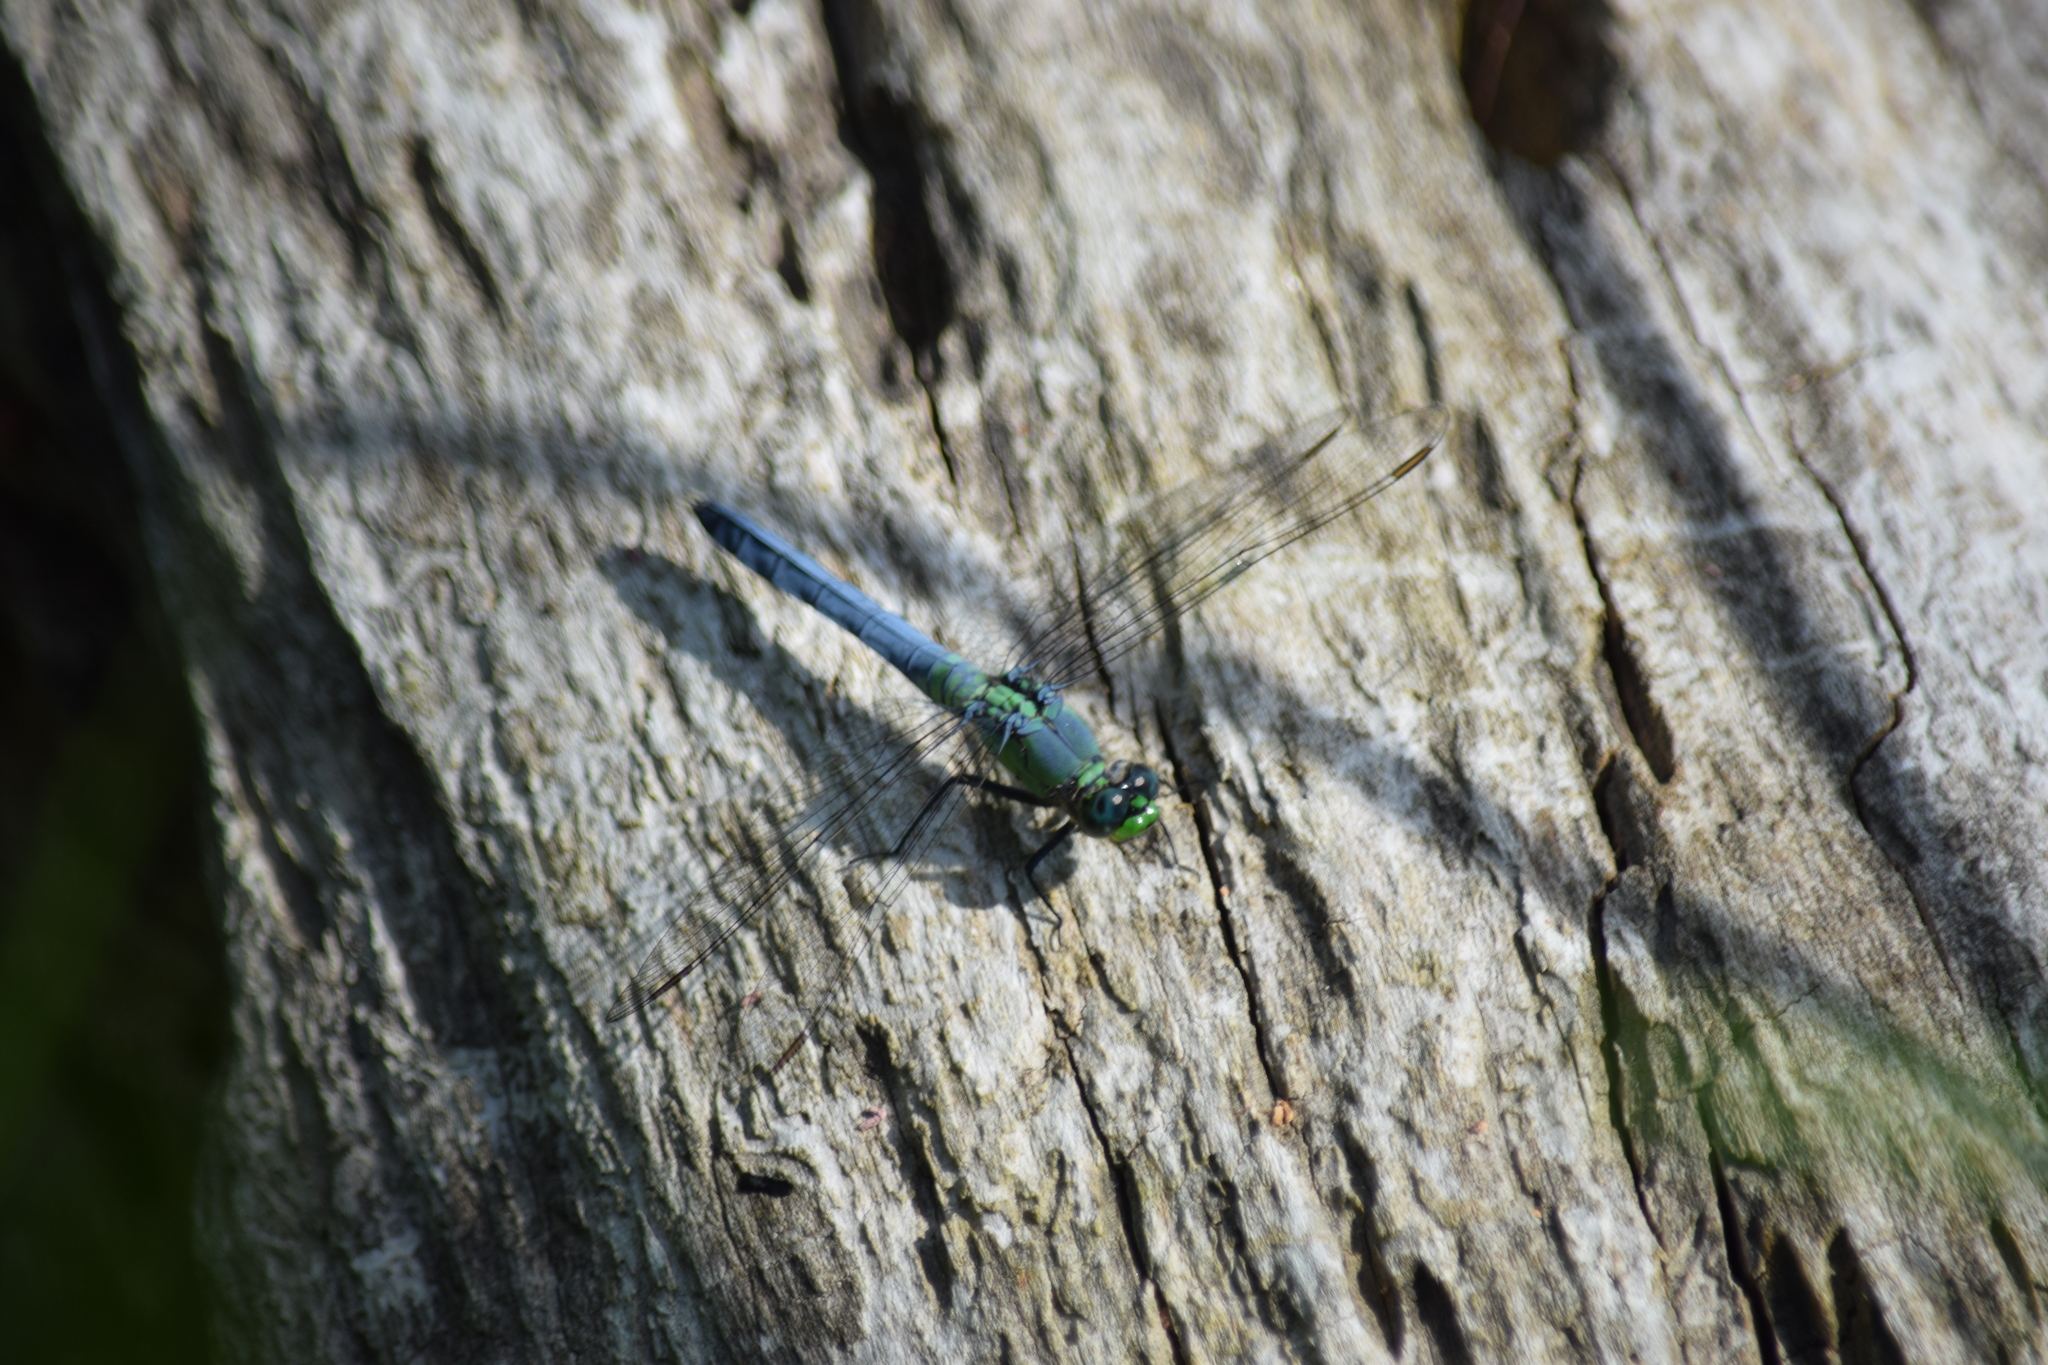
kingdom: Animalia
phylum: Arthropoda
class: Insecta
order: Odonata
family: Libellulidae
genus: Erythemis
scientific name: Erythemis simplicicollis
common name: Eastern pondhawk
